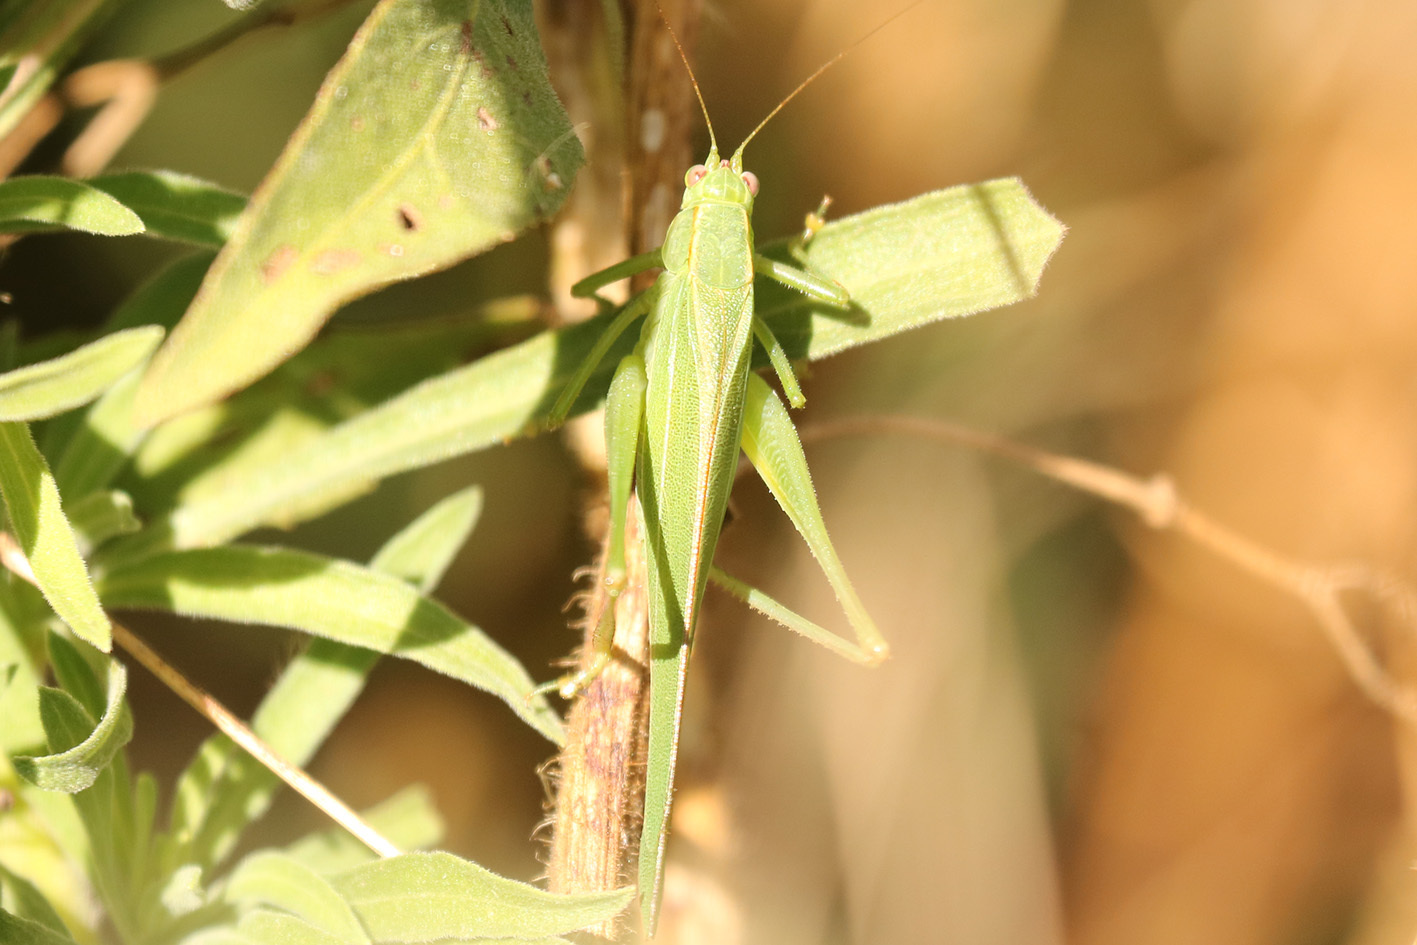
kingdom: Animalia
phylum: Arthropoda
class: Insecta
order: Orthoptera
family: Tettigoniidae
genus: Ligocatinus
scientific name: Ligocatinus spinatus
